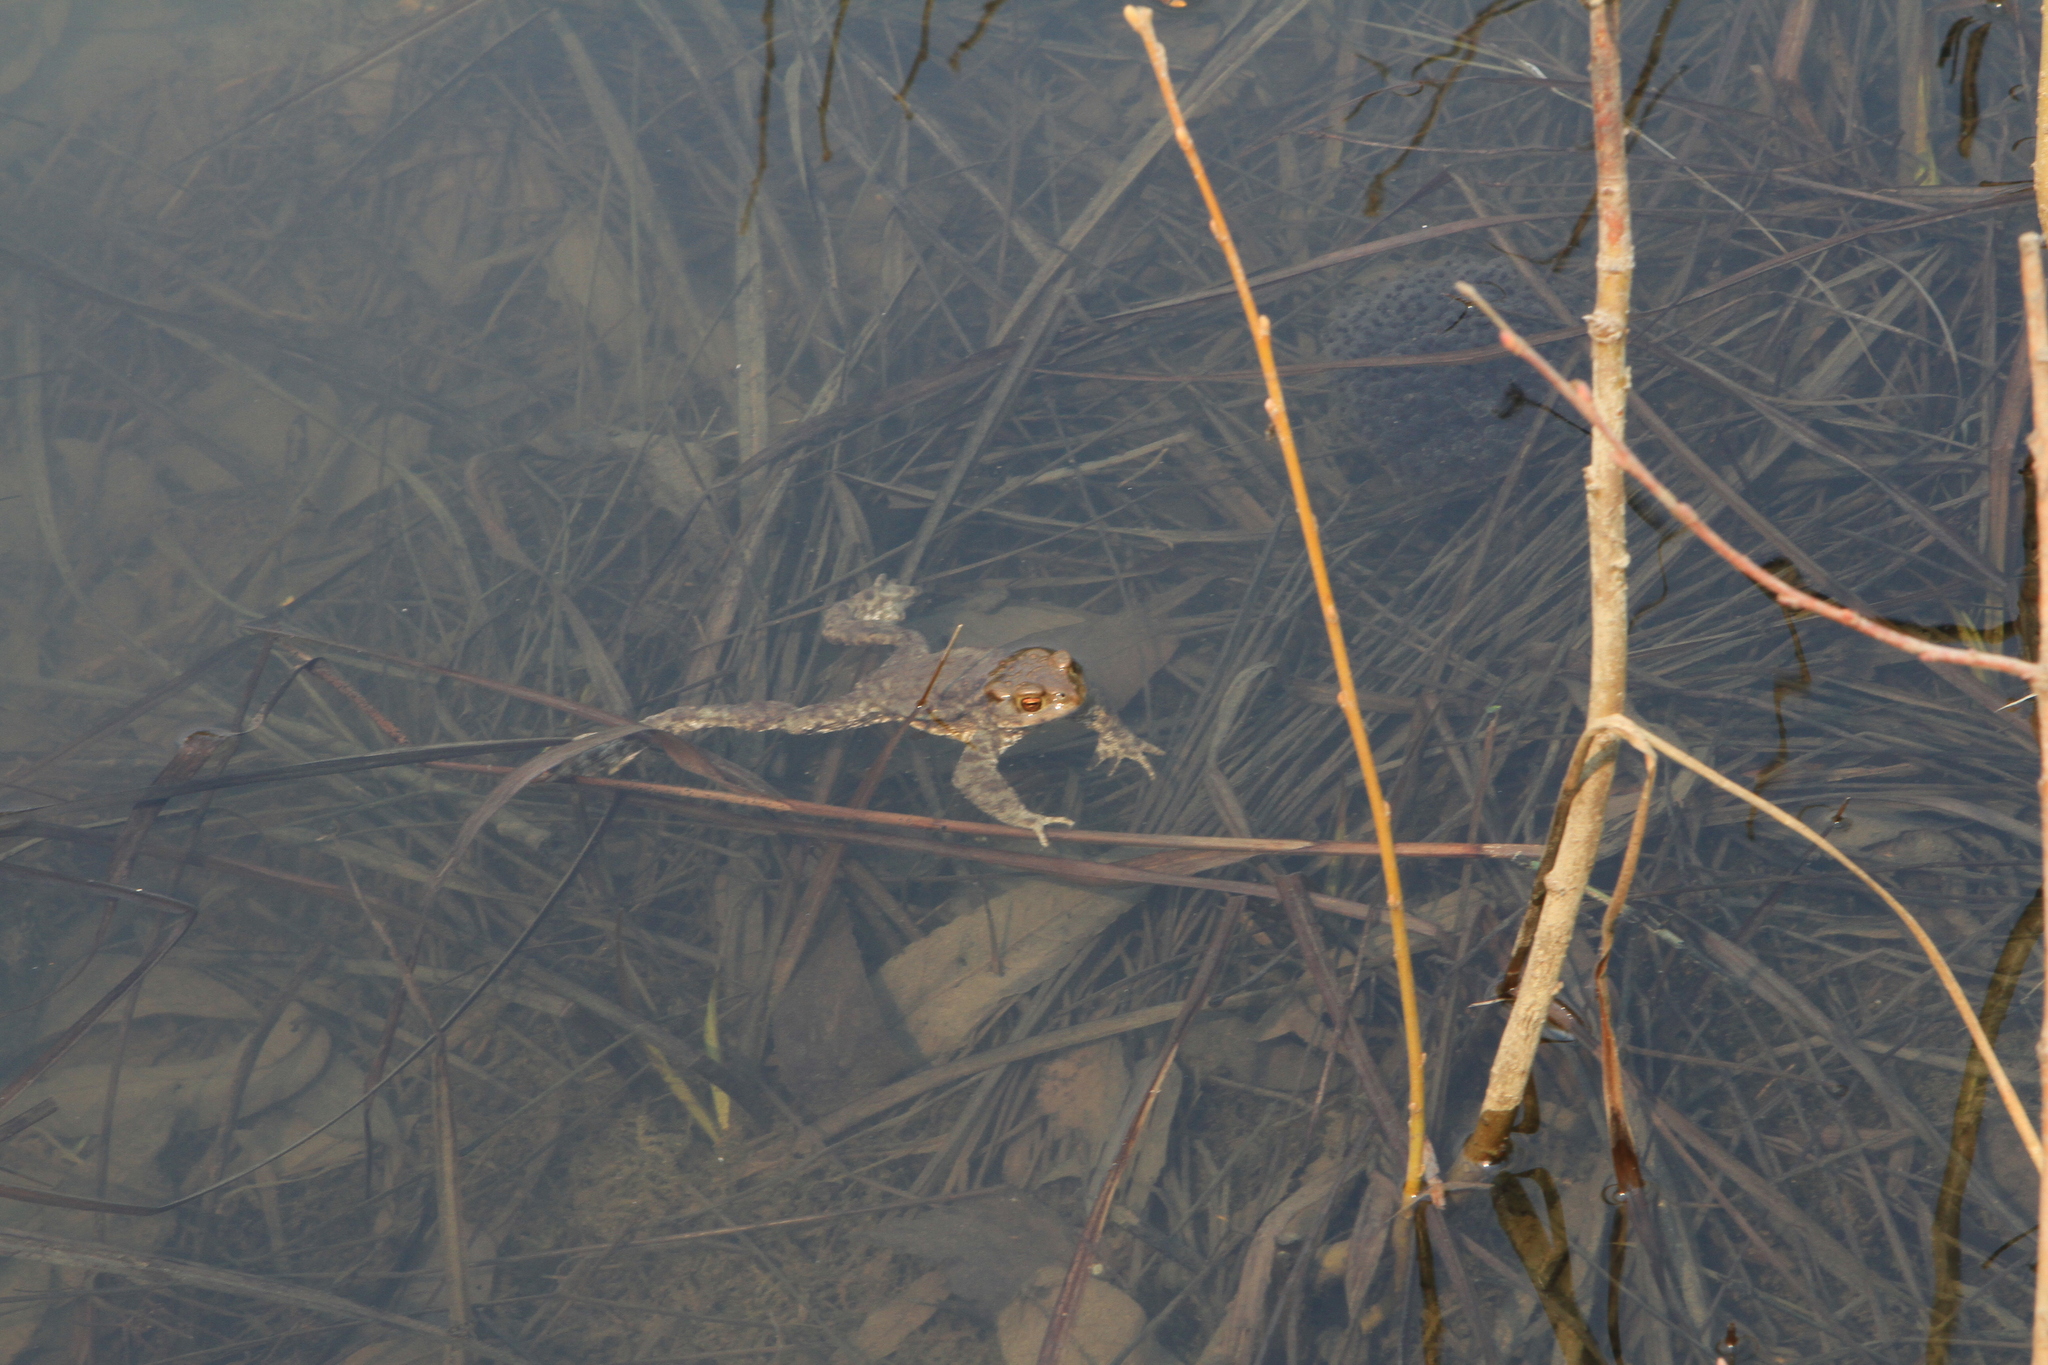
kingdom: Animalia
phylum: Chordata
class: Amphibia
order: Anura
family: Bufonidae
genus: Bufo
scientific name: Bufo bufo
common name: Common toad
